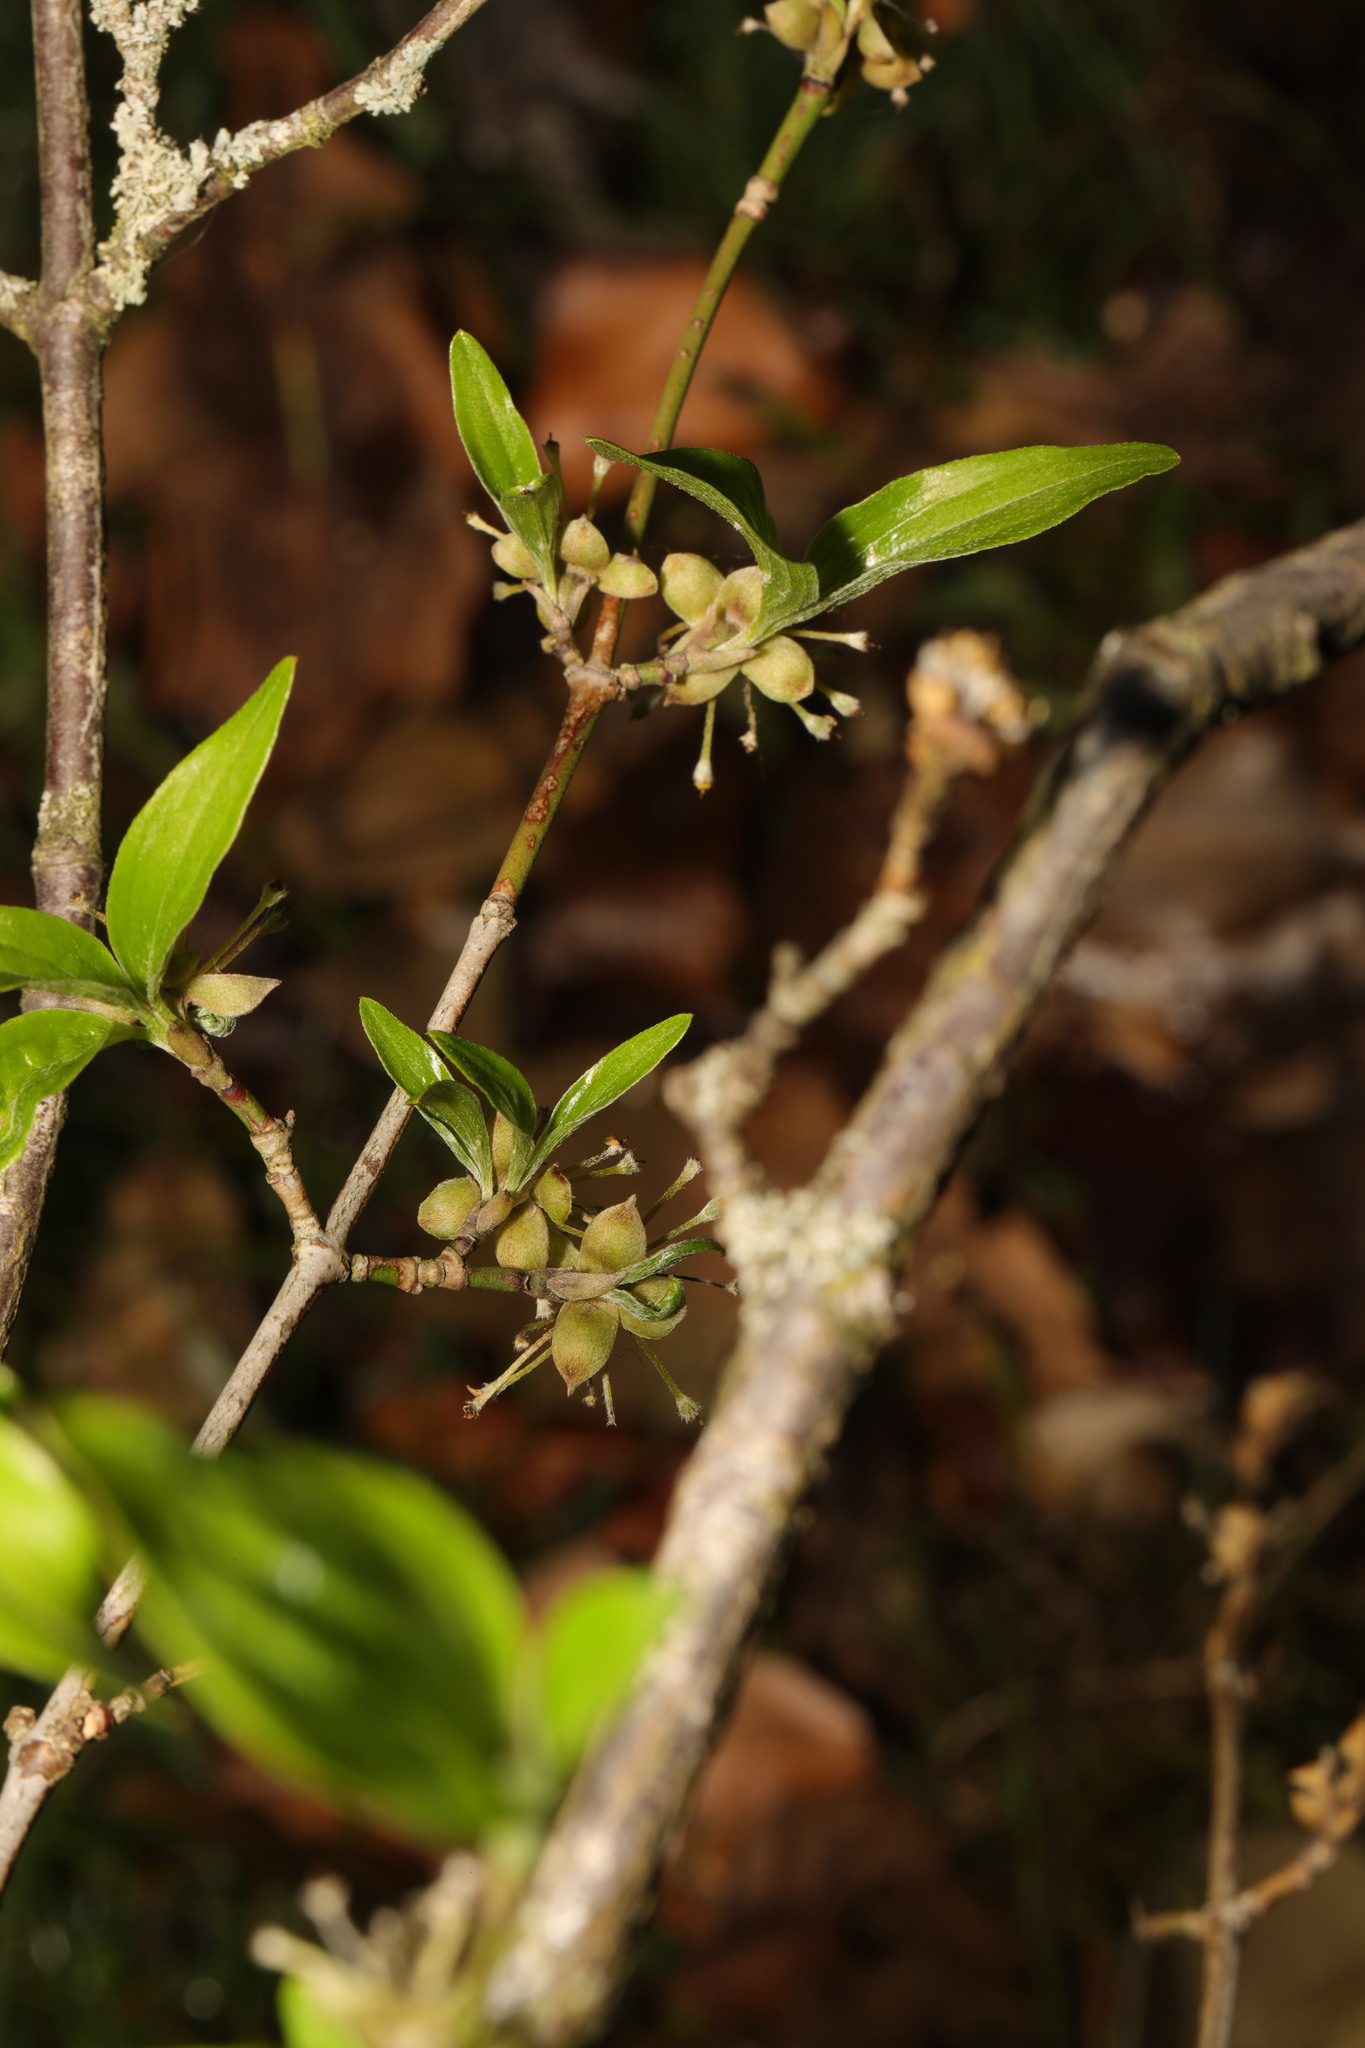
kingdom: Plantae
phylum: Tracheophyta
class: Magnoliopsida
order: Cornales
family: Cornaceae
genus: Cornus
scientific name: Cornus mas
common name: Cornelian-cherry
